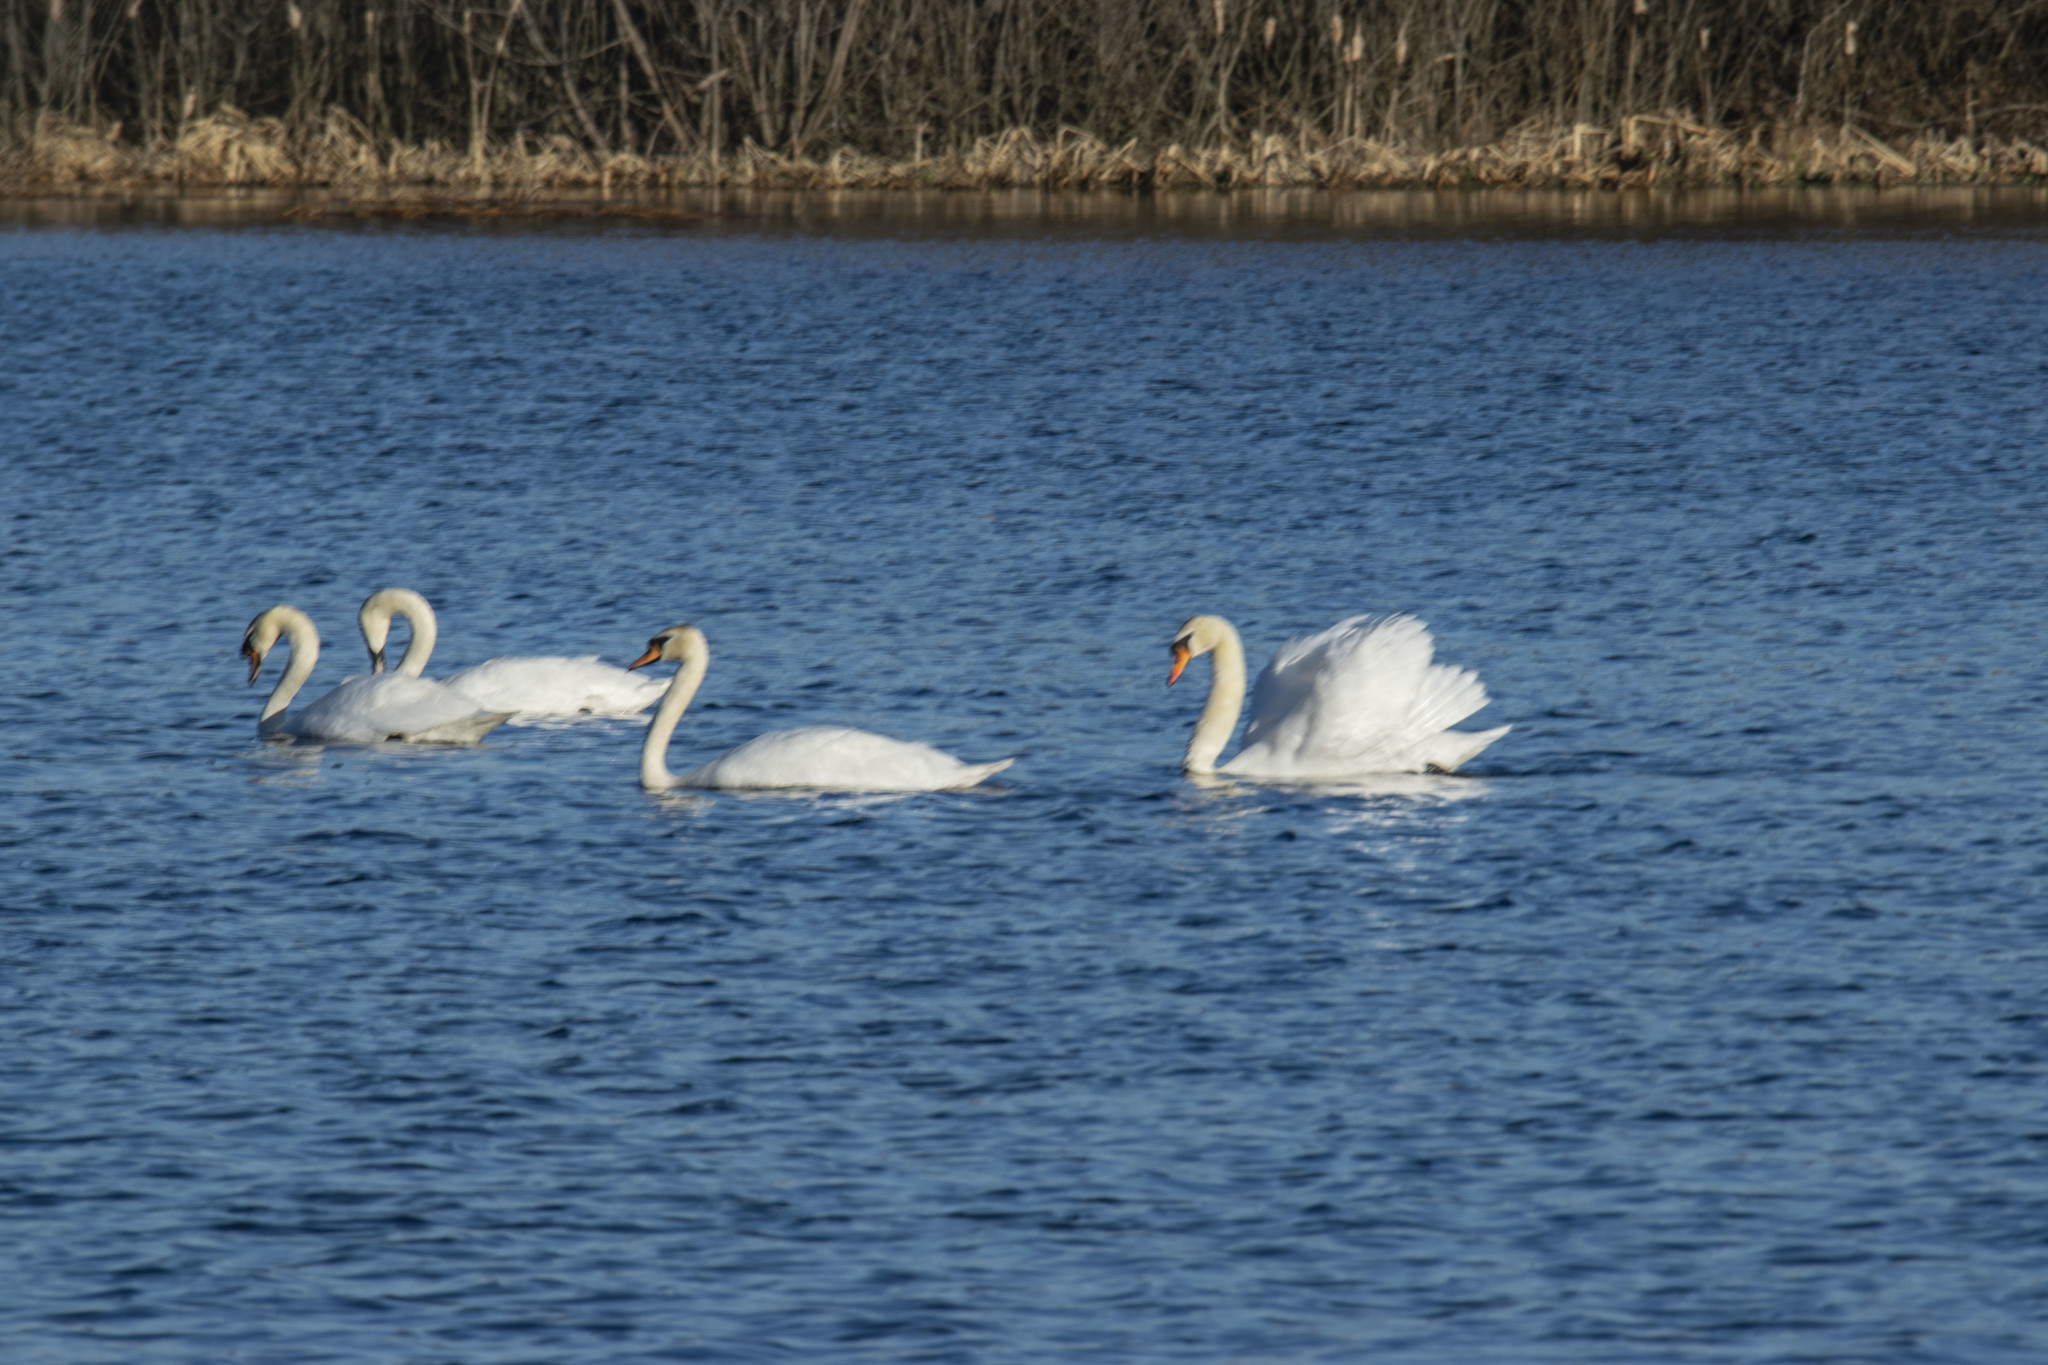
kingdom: Animalia
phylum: Chordata
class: Aves
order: Anseriformes
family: Anatidae
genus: Cygnus
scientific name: Cygnus olor
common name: Mute swan
